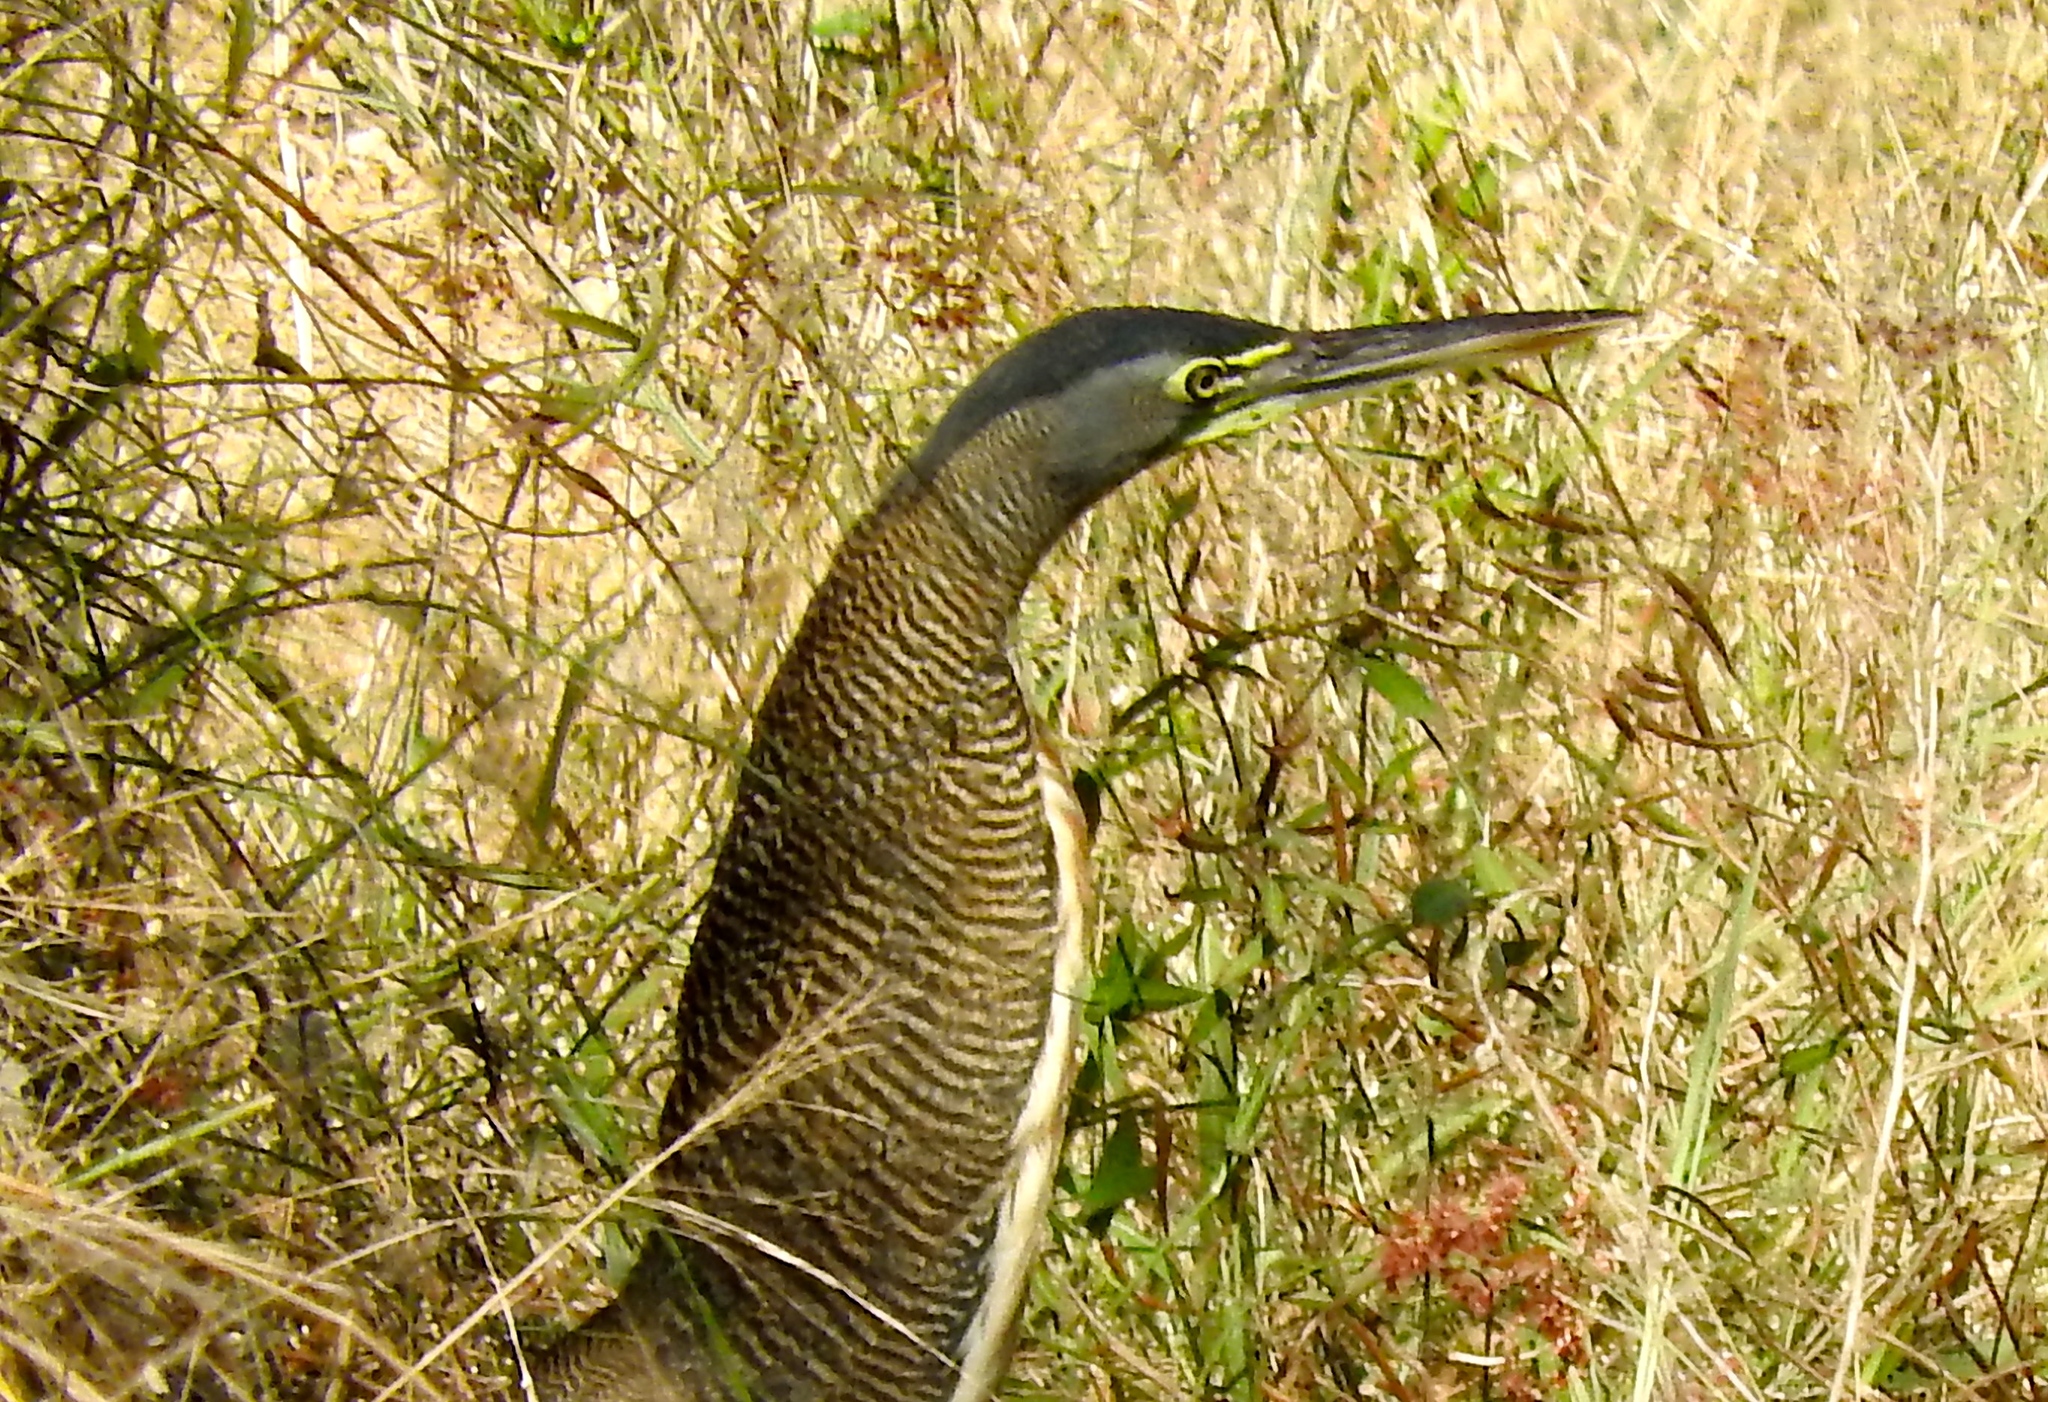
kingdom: Animalia
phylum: Chordata
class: Aves
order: Pelecaniformes
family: Ardeidae
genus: Tigrisoma
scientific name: Tigrisoma mexicanum
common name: Bare-throated tiger-heron
